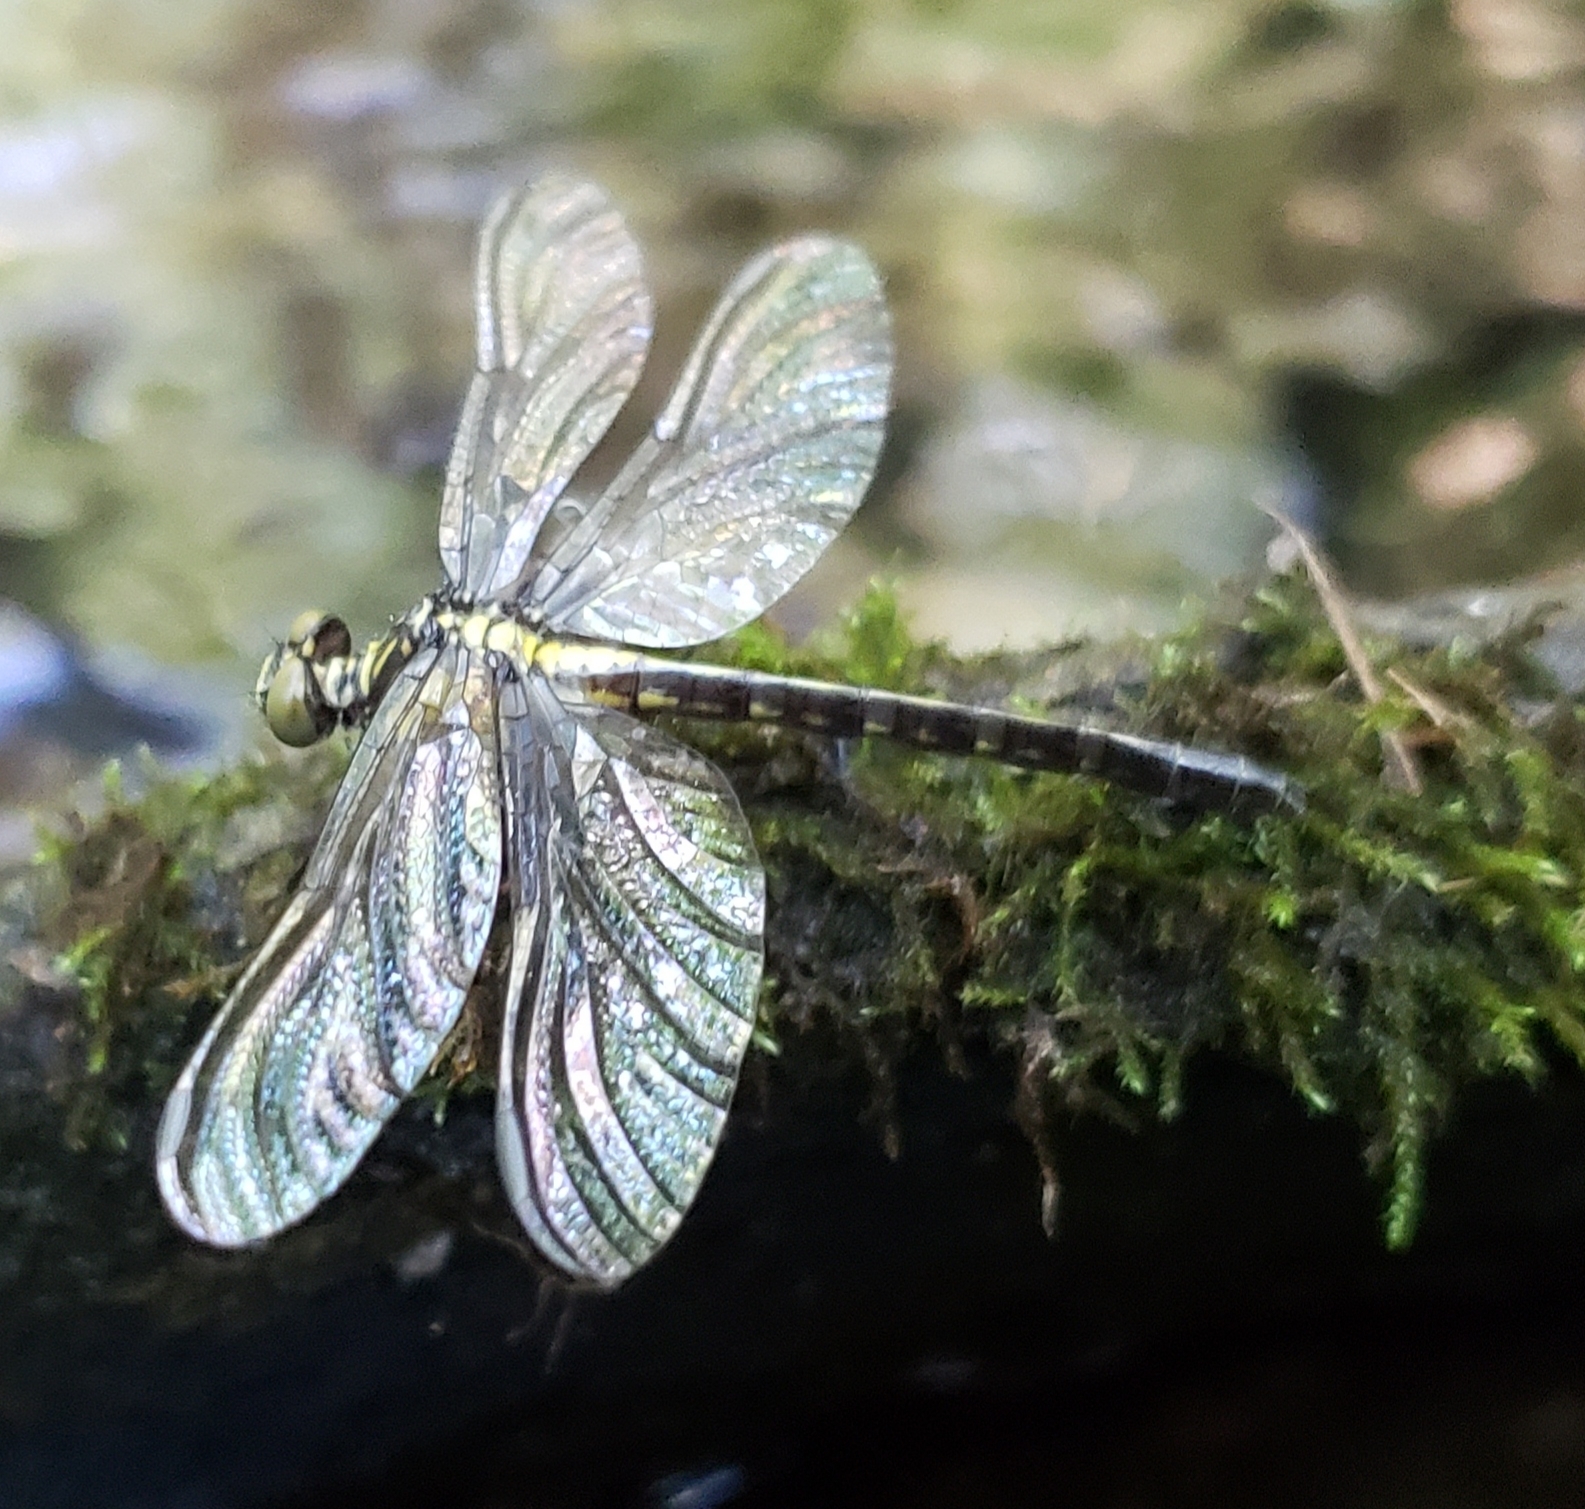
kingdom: Animalia
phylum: Arthropoda
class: Insecta
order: Odonata
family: Gomphidae
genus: Lanthus
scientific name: Lanthus vernalis
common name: Southern pygmy clubtail
